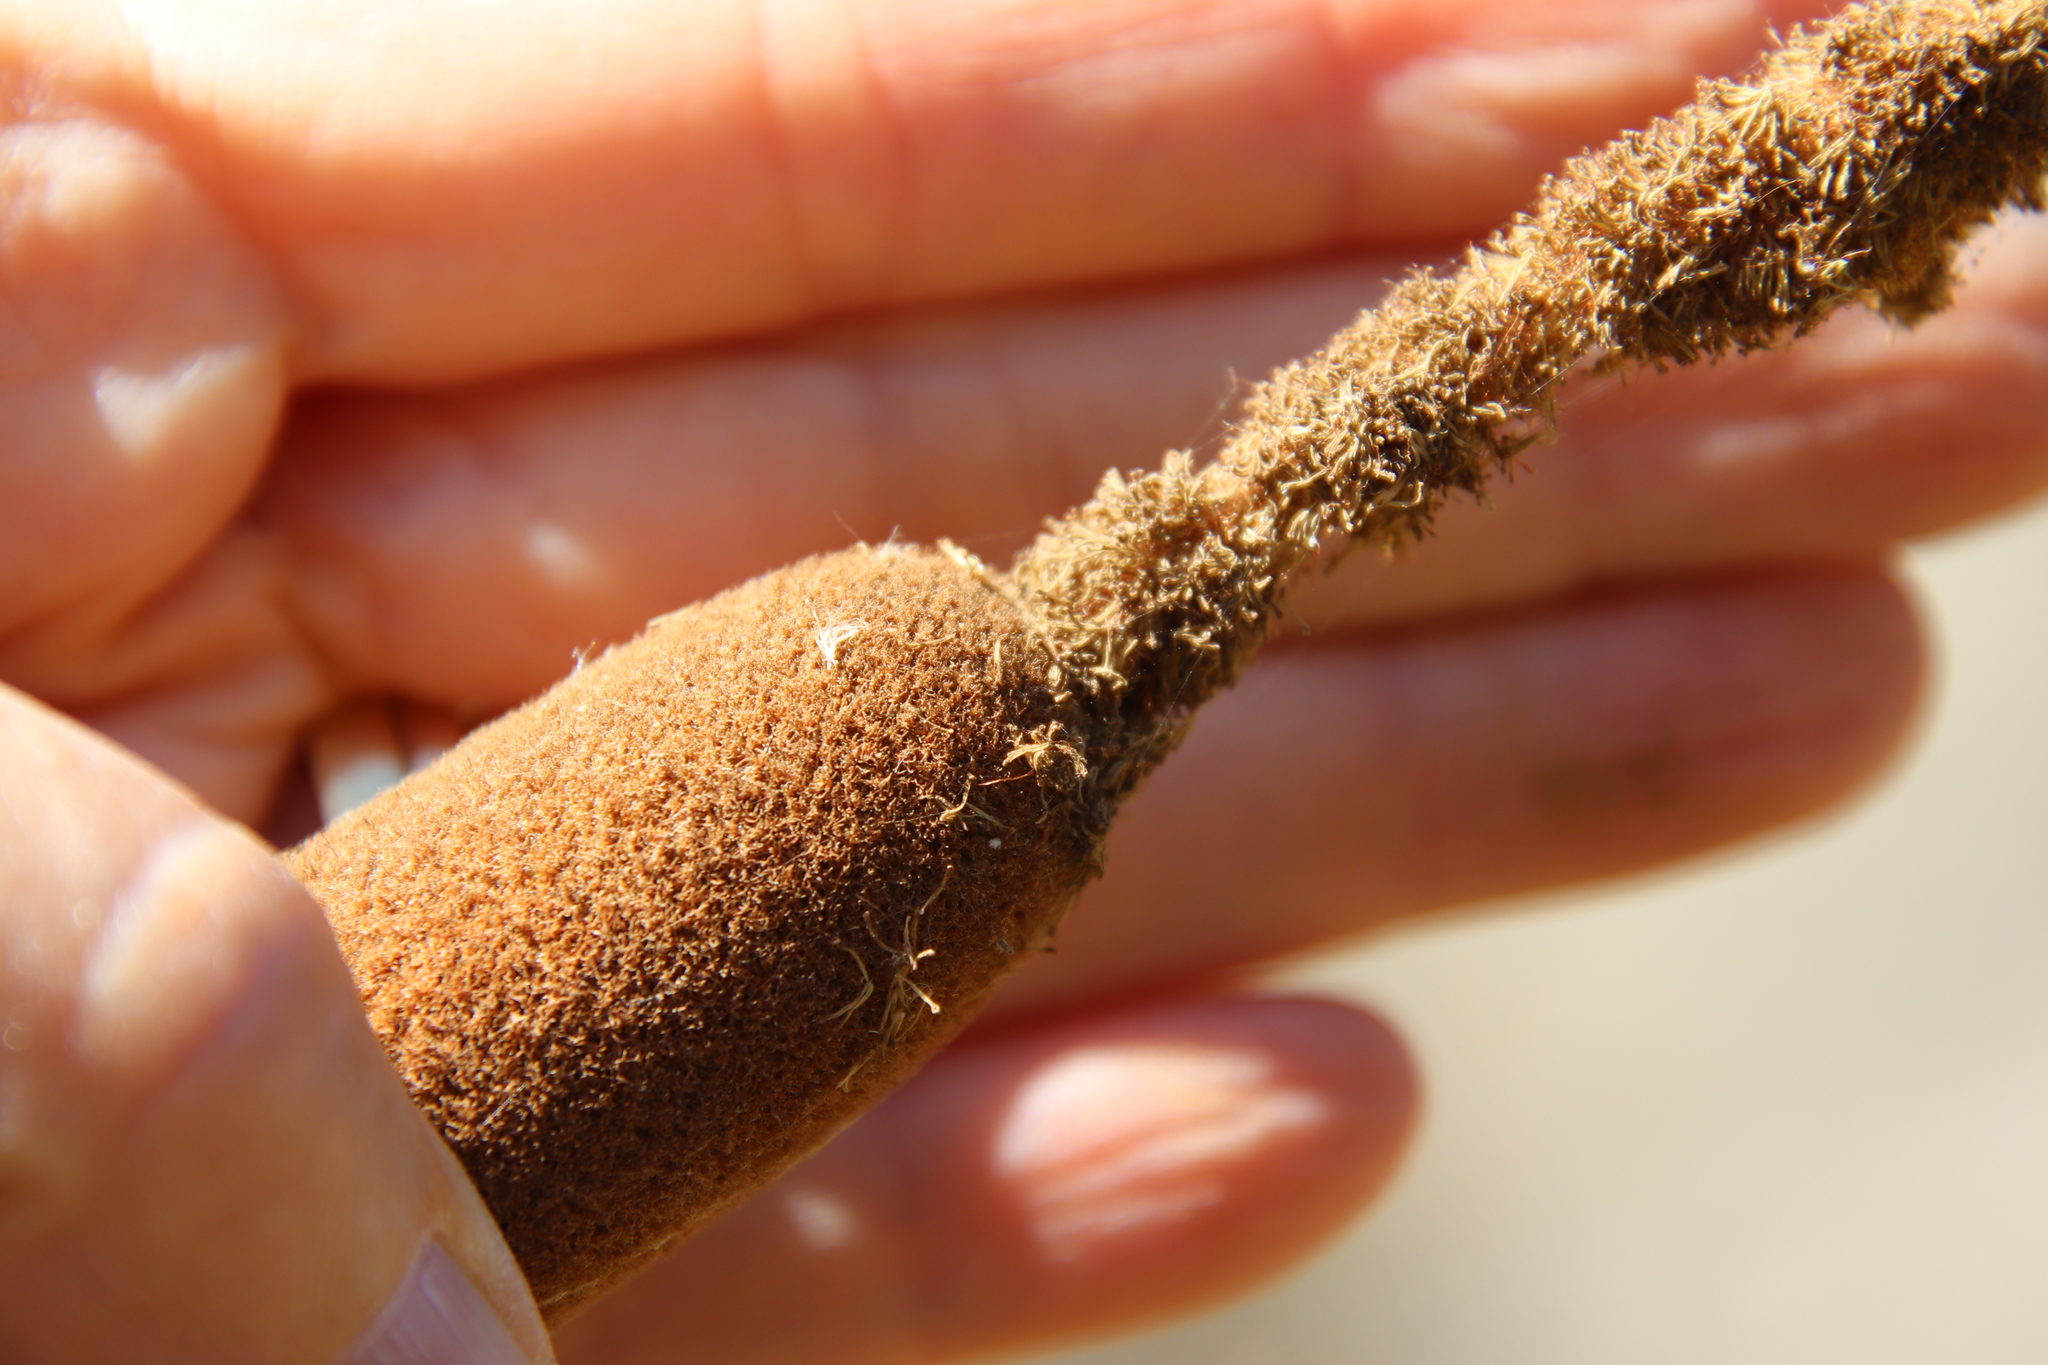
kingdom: Plantae
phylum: Tracheophyta
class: Liliopsida
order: Poales
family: Typhaceae
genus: Typha
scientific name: Typha domingensis
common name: Southern cattail
